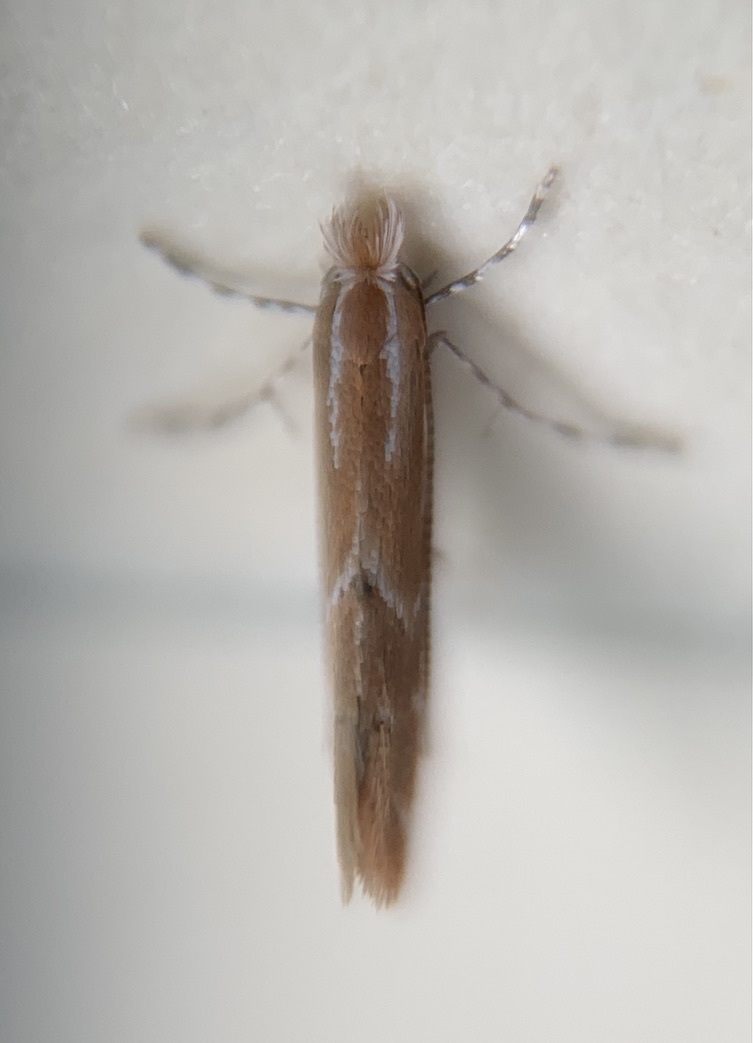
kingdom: Animalia
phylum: Arthropoda
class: Insecta
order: Lepidoptera
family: Gracillariidae
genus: Cremastobombycia
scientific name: Cremastobombycia solidaginis
